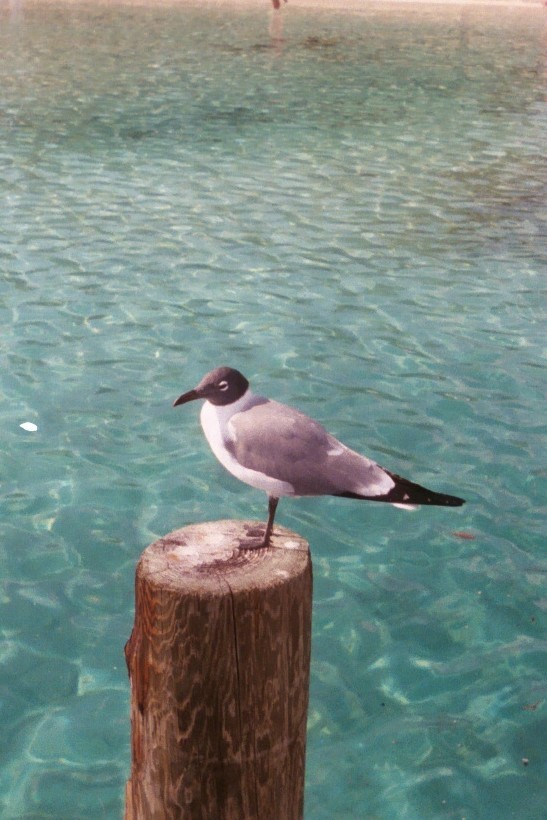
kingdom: Animalia
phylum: Chordata
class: Aves
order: Charadriiformes
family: Laridae
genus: Leucophaeus
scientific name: Leucophaeus atricilla
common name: Laughing gull
